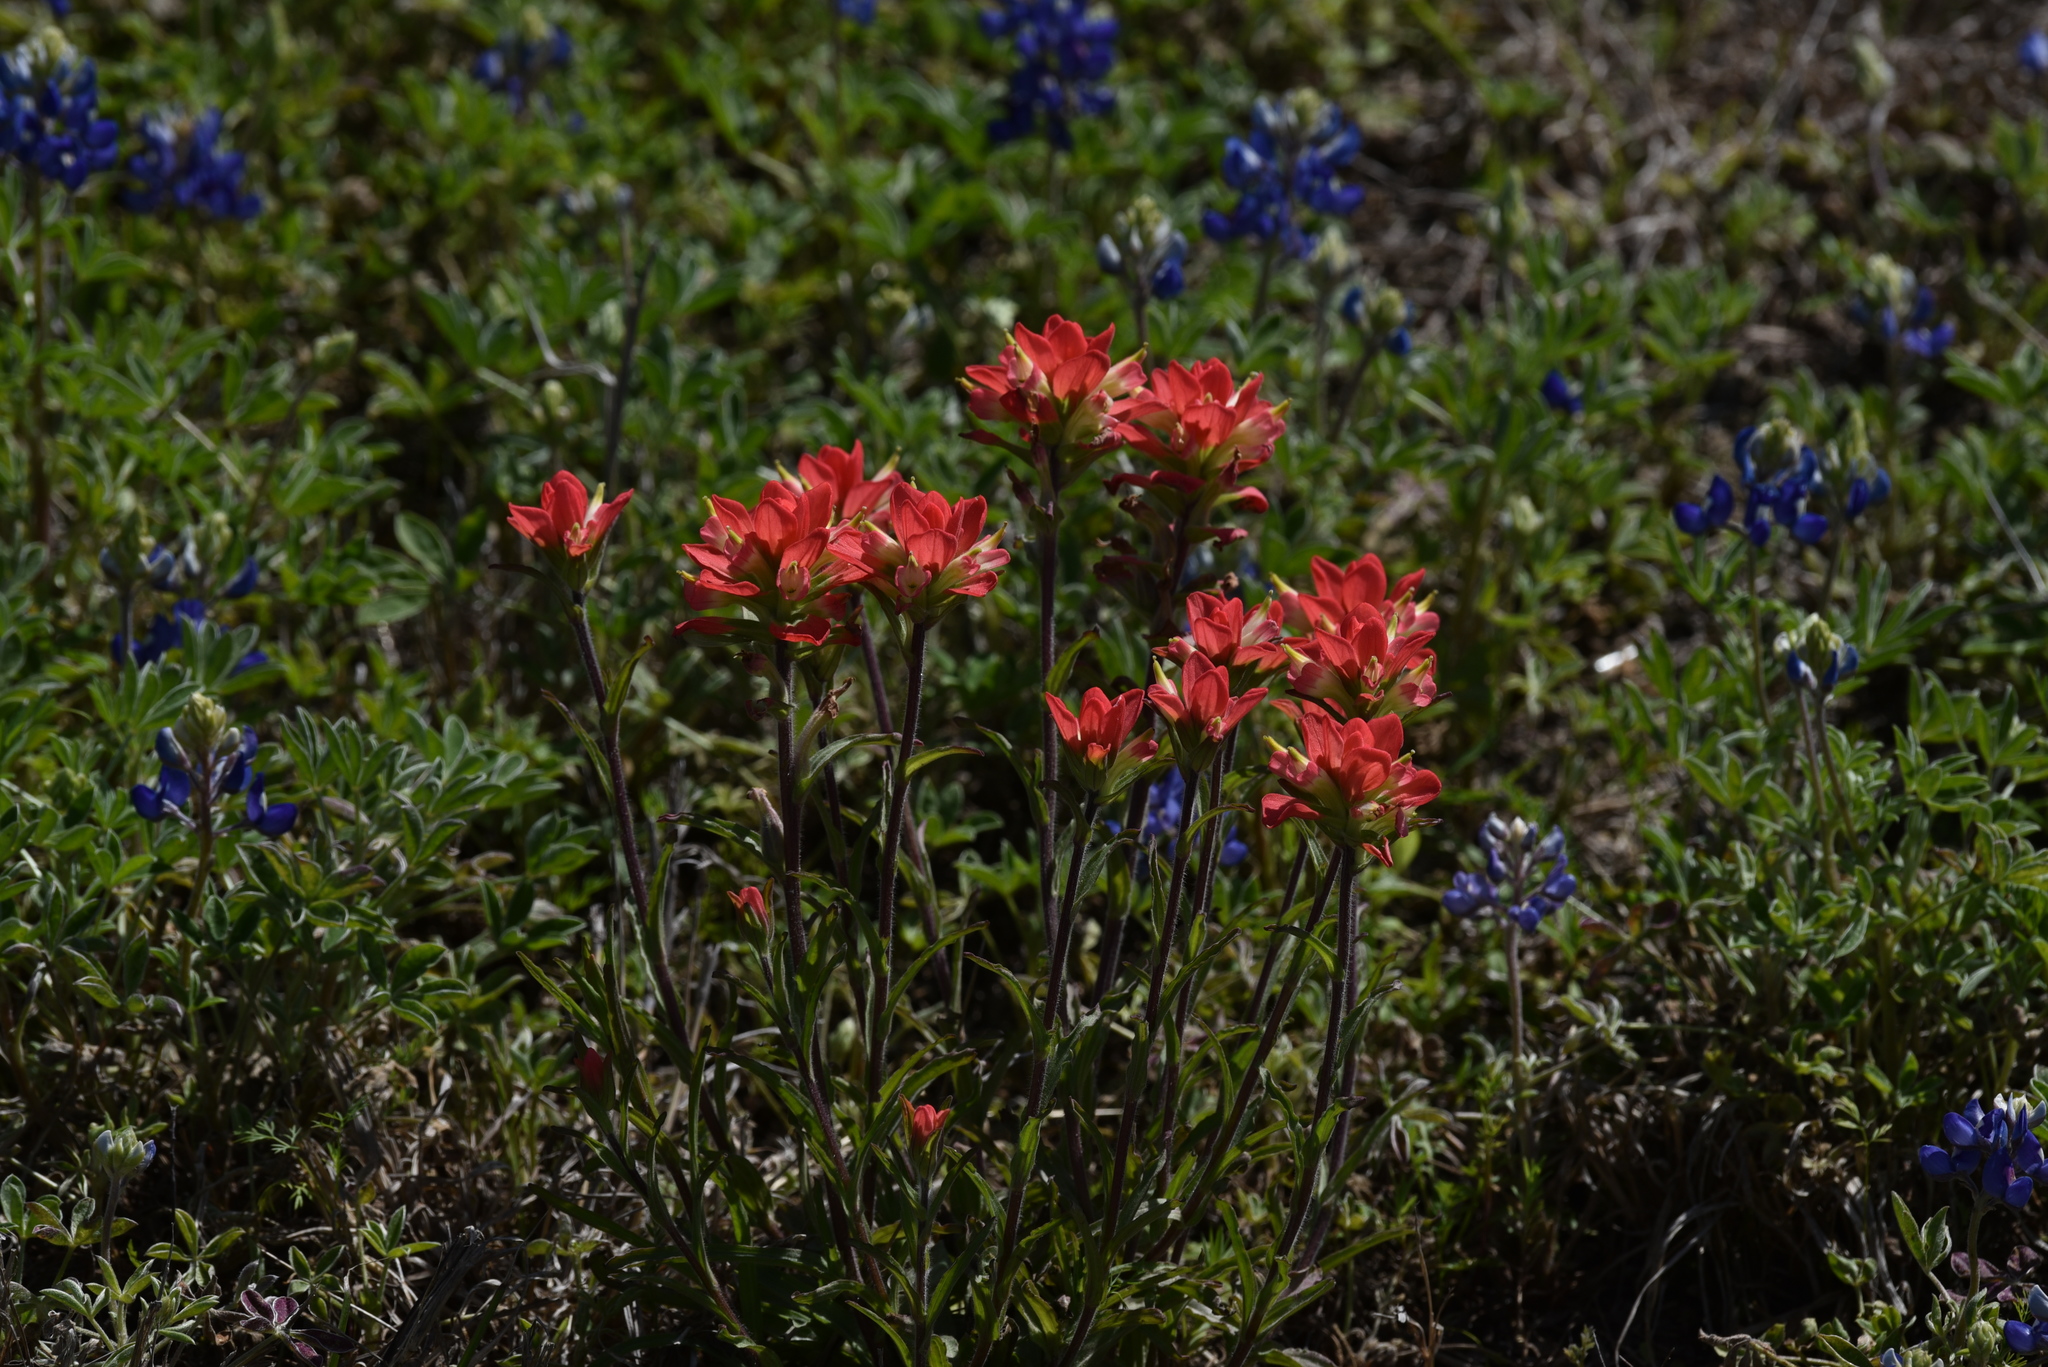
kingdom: Plantae
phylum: Tracheophyta
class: Magnoliopsida
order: Lamiales
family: Orobanchaceae
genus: Castilleja
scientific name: Castilleja indivisa
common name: Texas paintbrush
